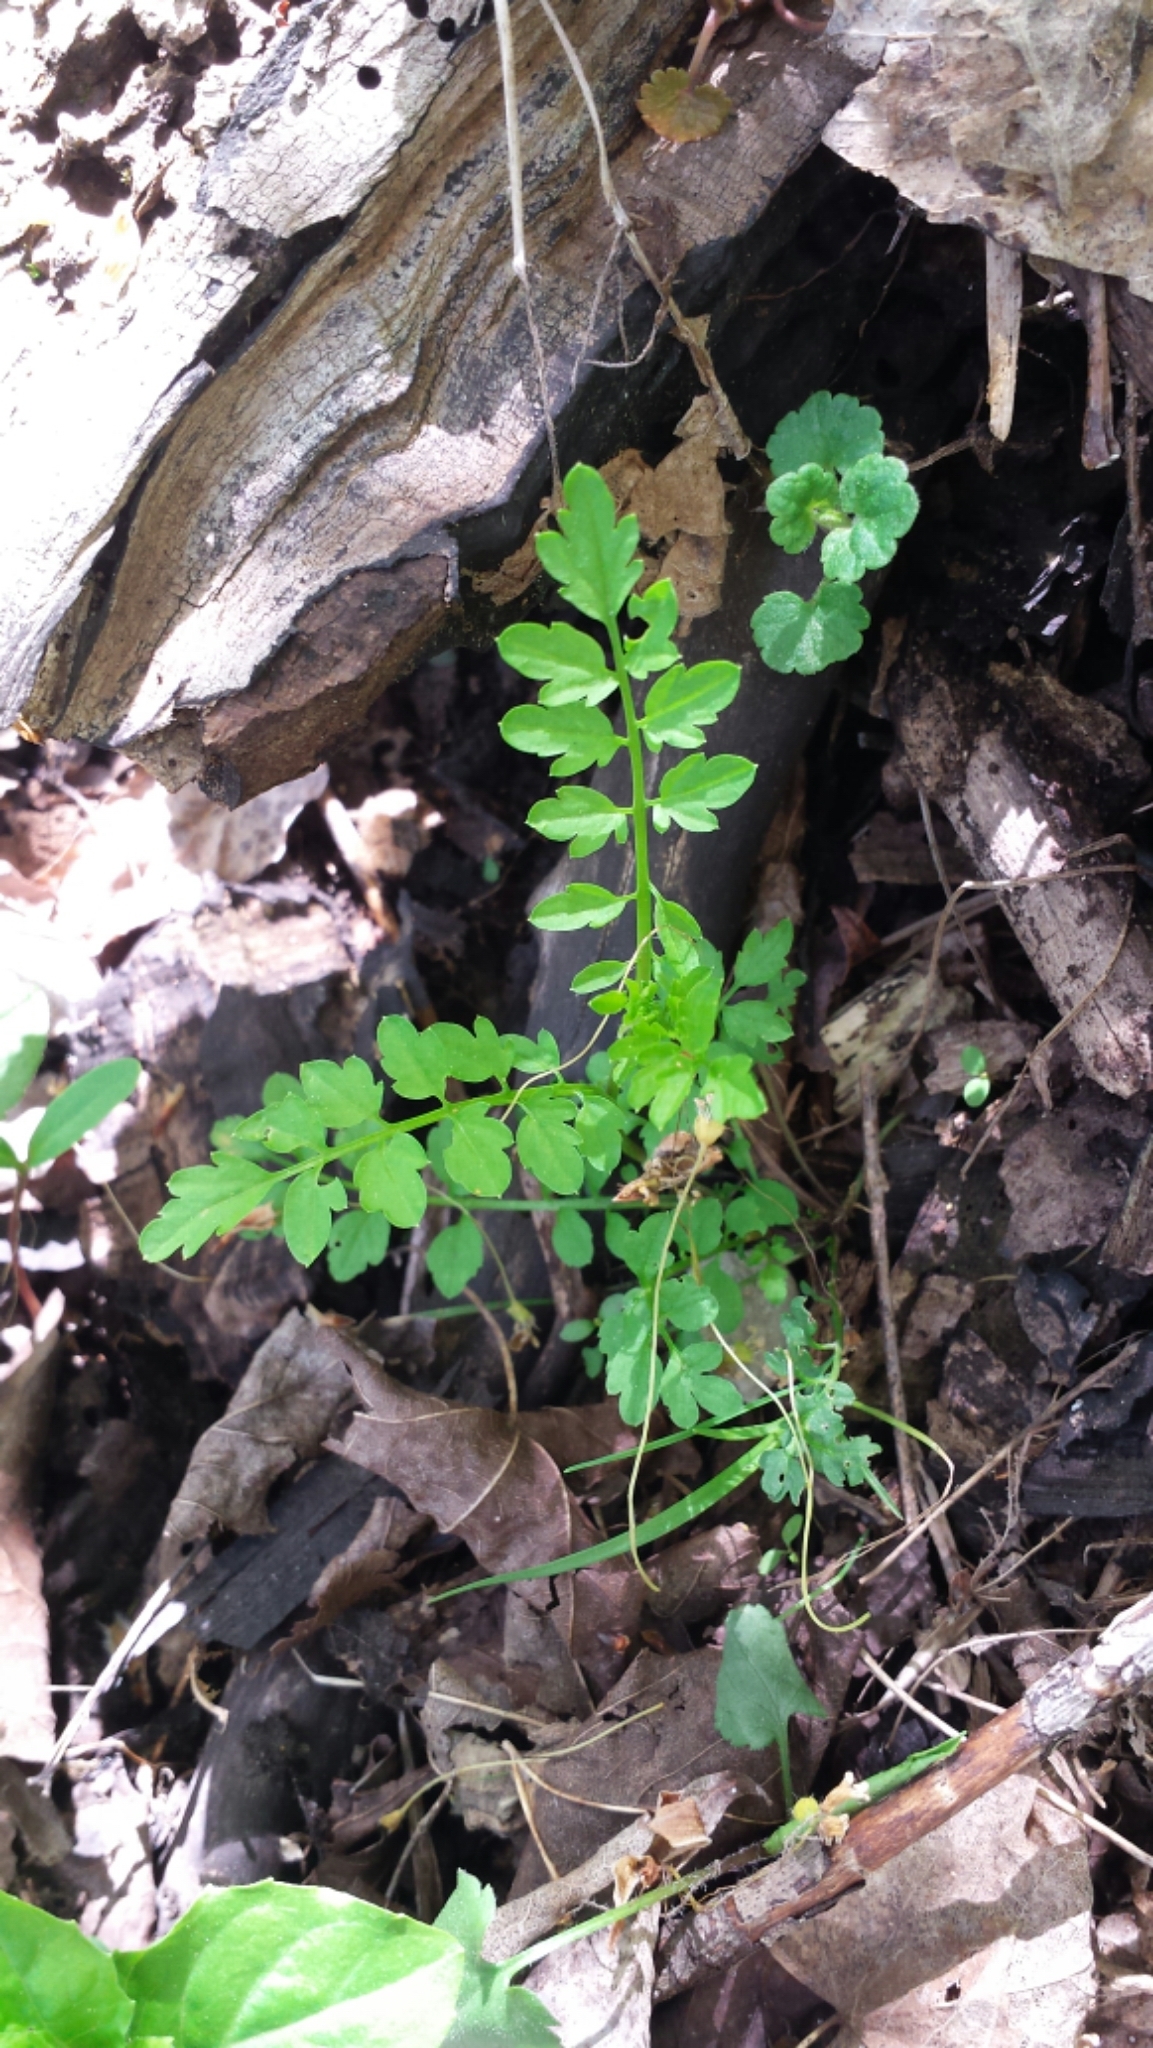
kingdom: Plantae
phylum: Tracheophyta
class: Magnoliopsida
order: Brassicales
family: Brassicaceae
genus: Cardamine
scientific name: Cardamine impatiens
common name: Narrow-leaved bitter-cress
